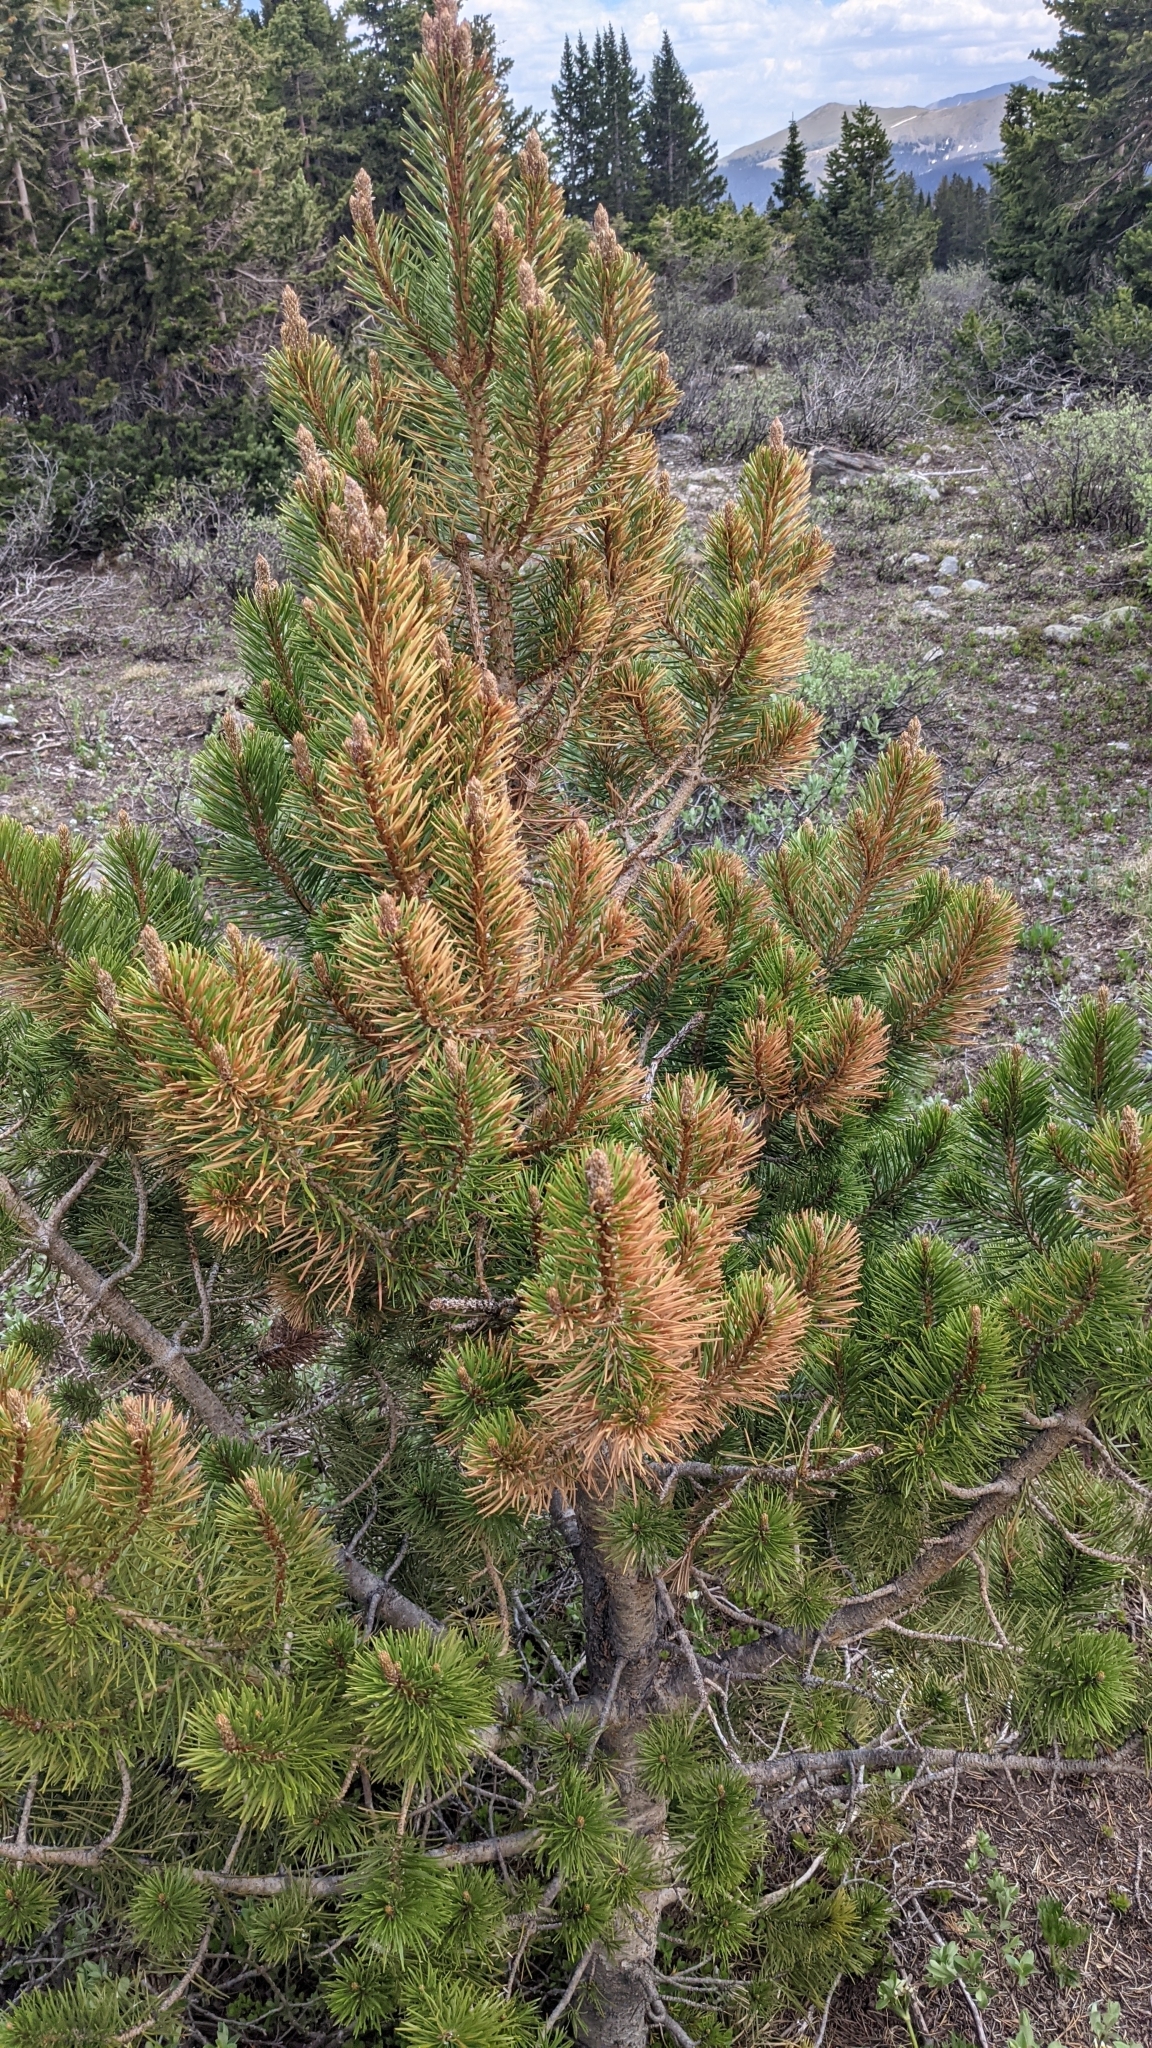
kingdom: Plantae
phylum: Tracheophyta
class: Pinopsida
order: Pinales
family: Pinaceae
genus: Pinus
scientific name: Pinus contorta
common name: Lodgepole pine
